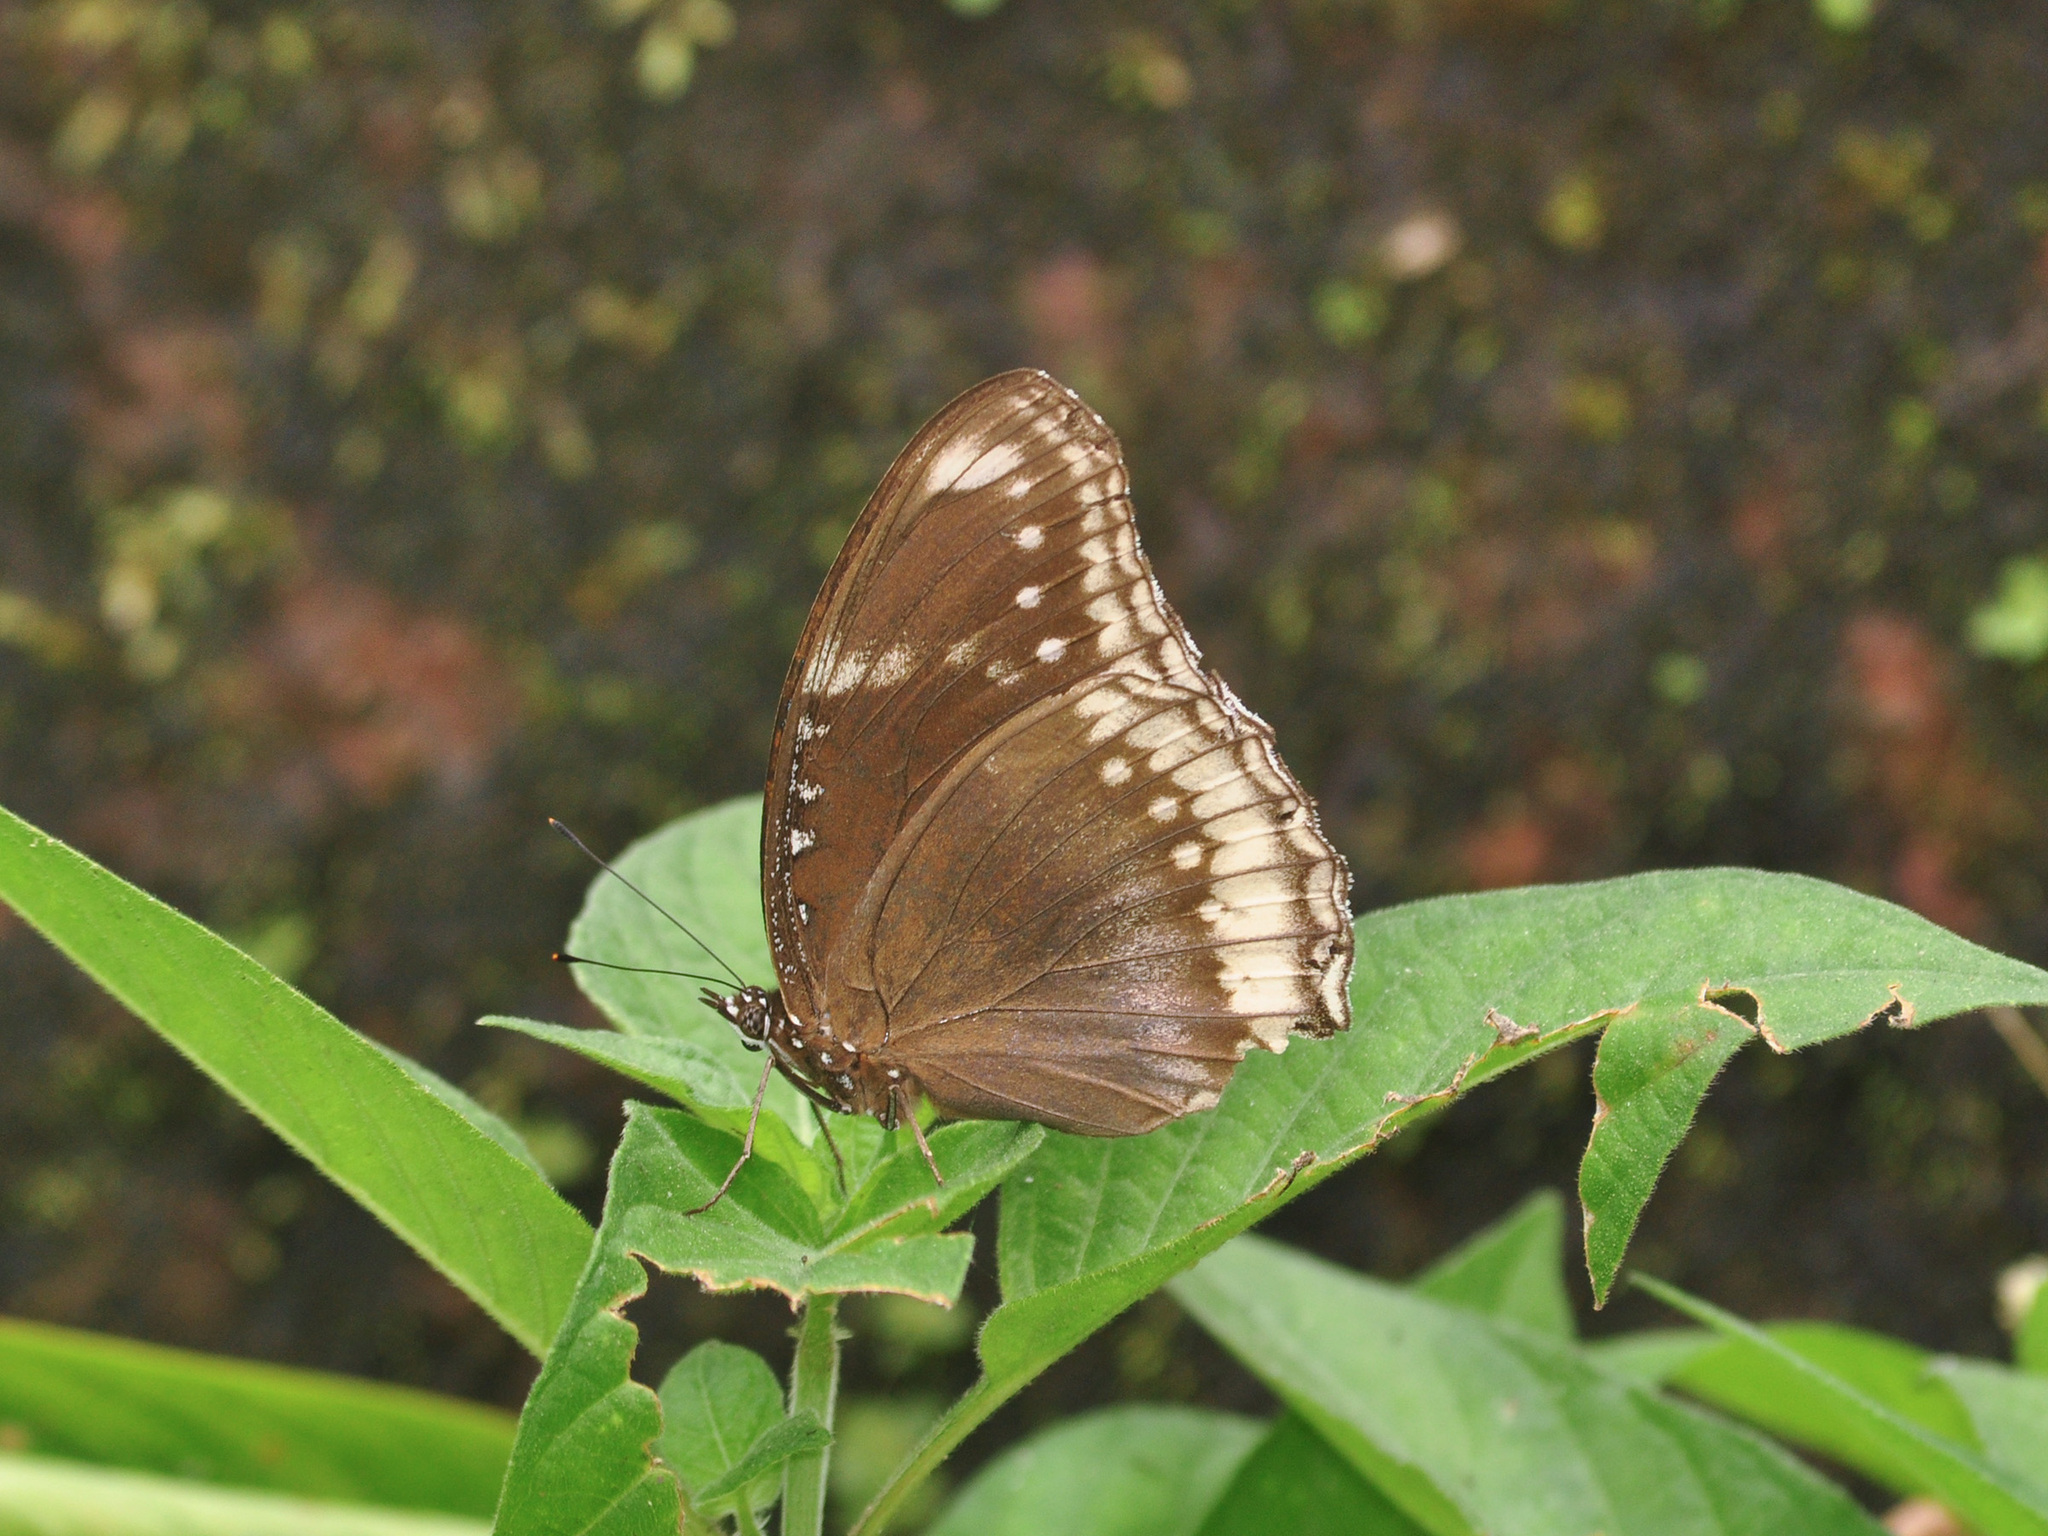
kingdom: Animalia
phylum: Arthropoda
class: Insecta
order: Lepidoptera
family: Nymphalidae
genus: Hypolimnas
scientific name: Hypolimnas bolina
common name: Great eggfly
